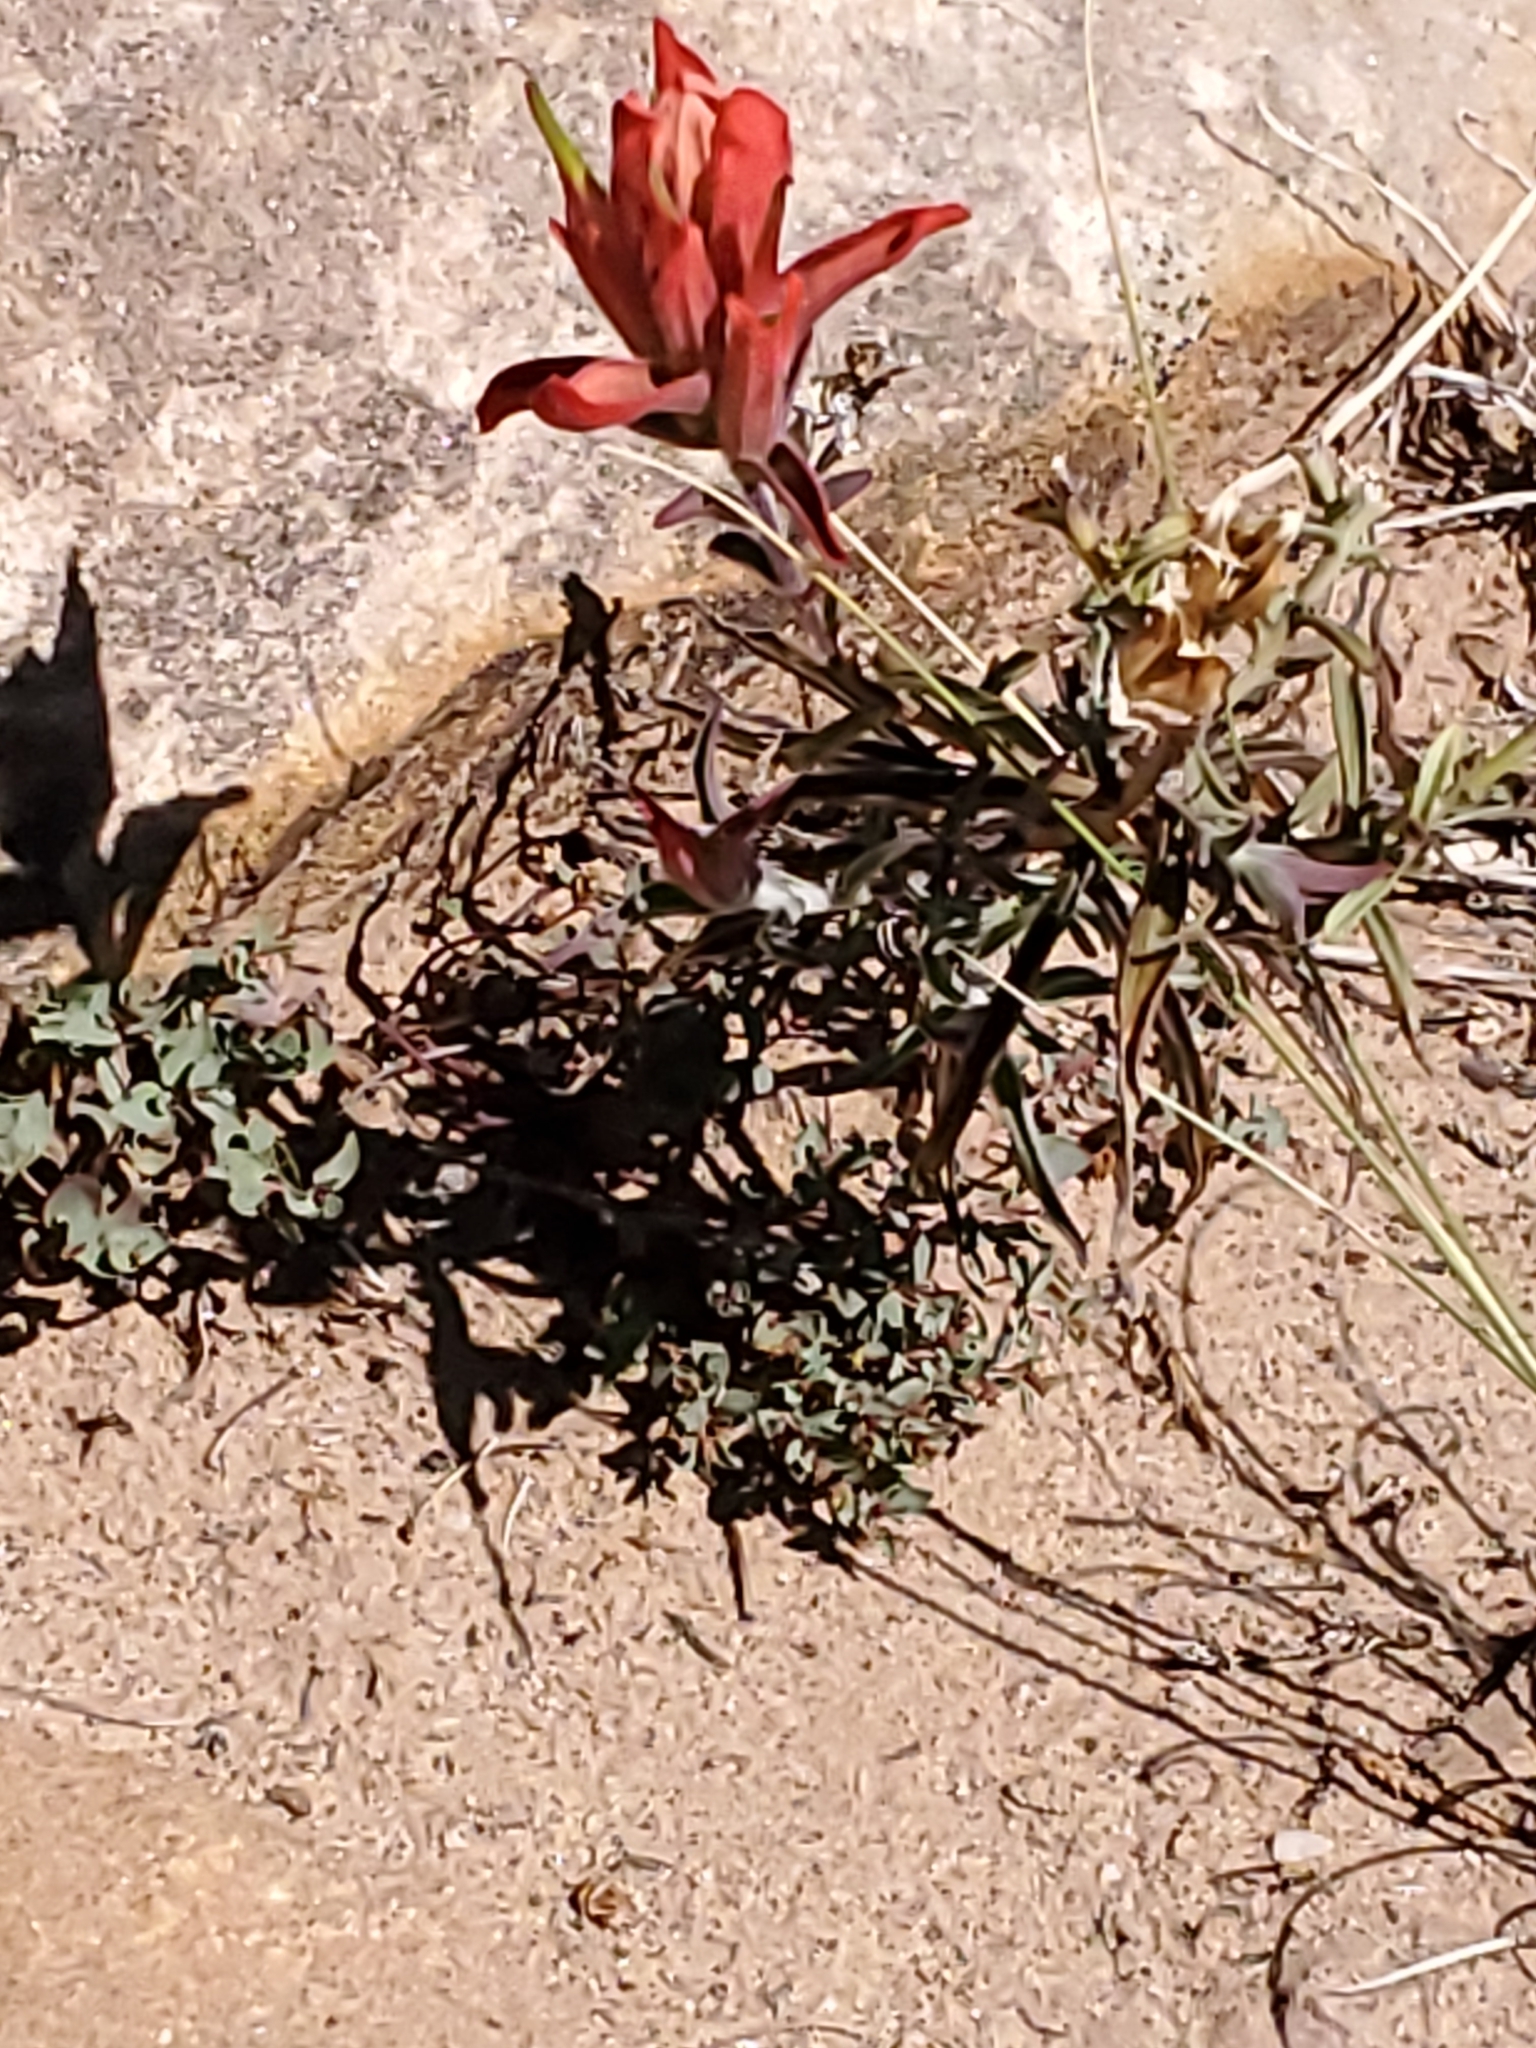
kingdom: Plantae
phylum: Tracheophyta
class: Magnoliopsida
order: Lamiales
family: Orobanchaceae
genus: Castilleja
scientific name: Castilleja integra
